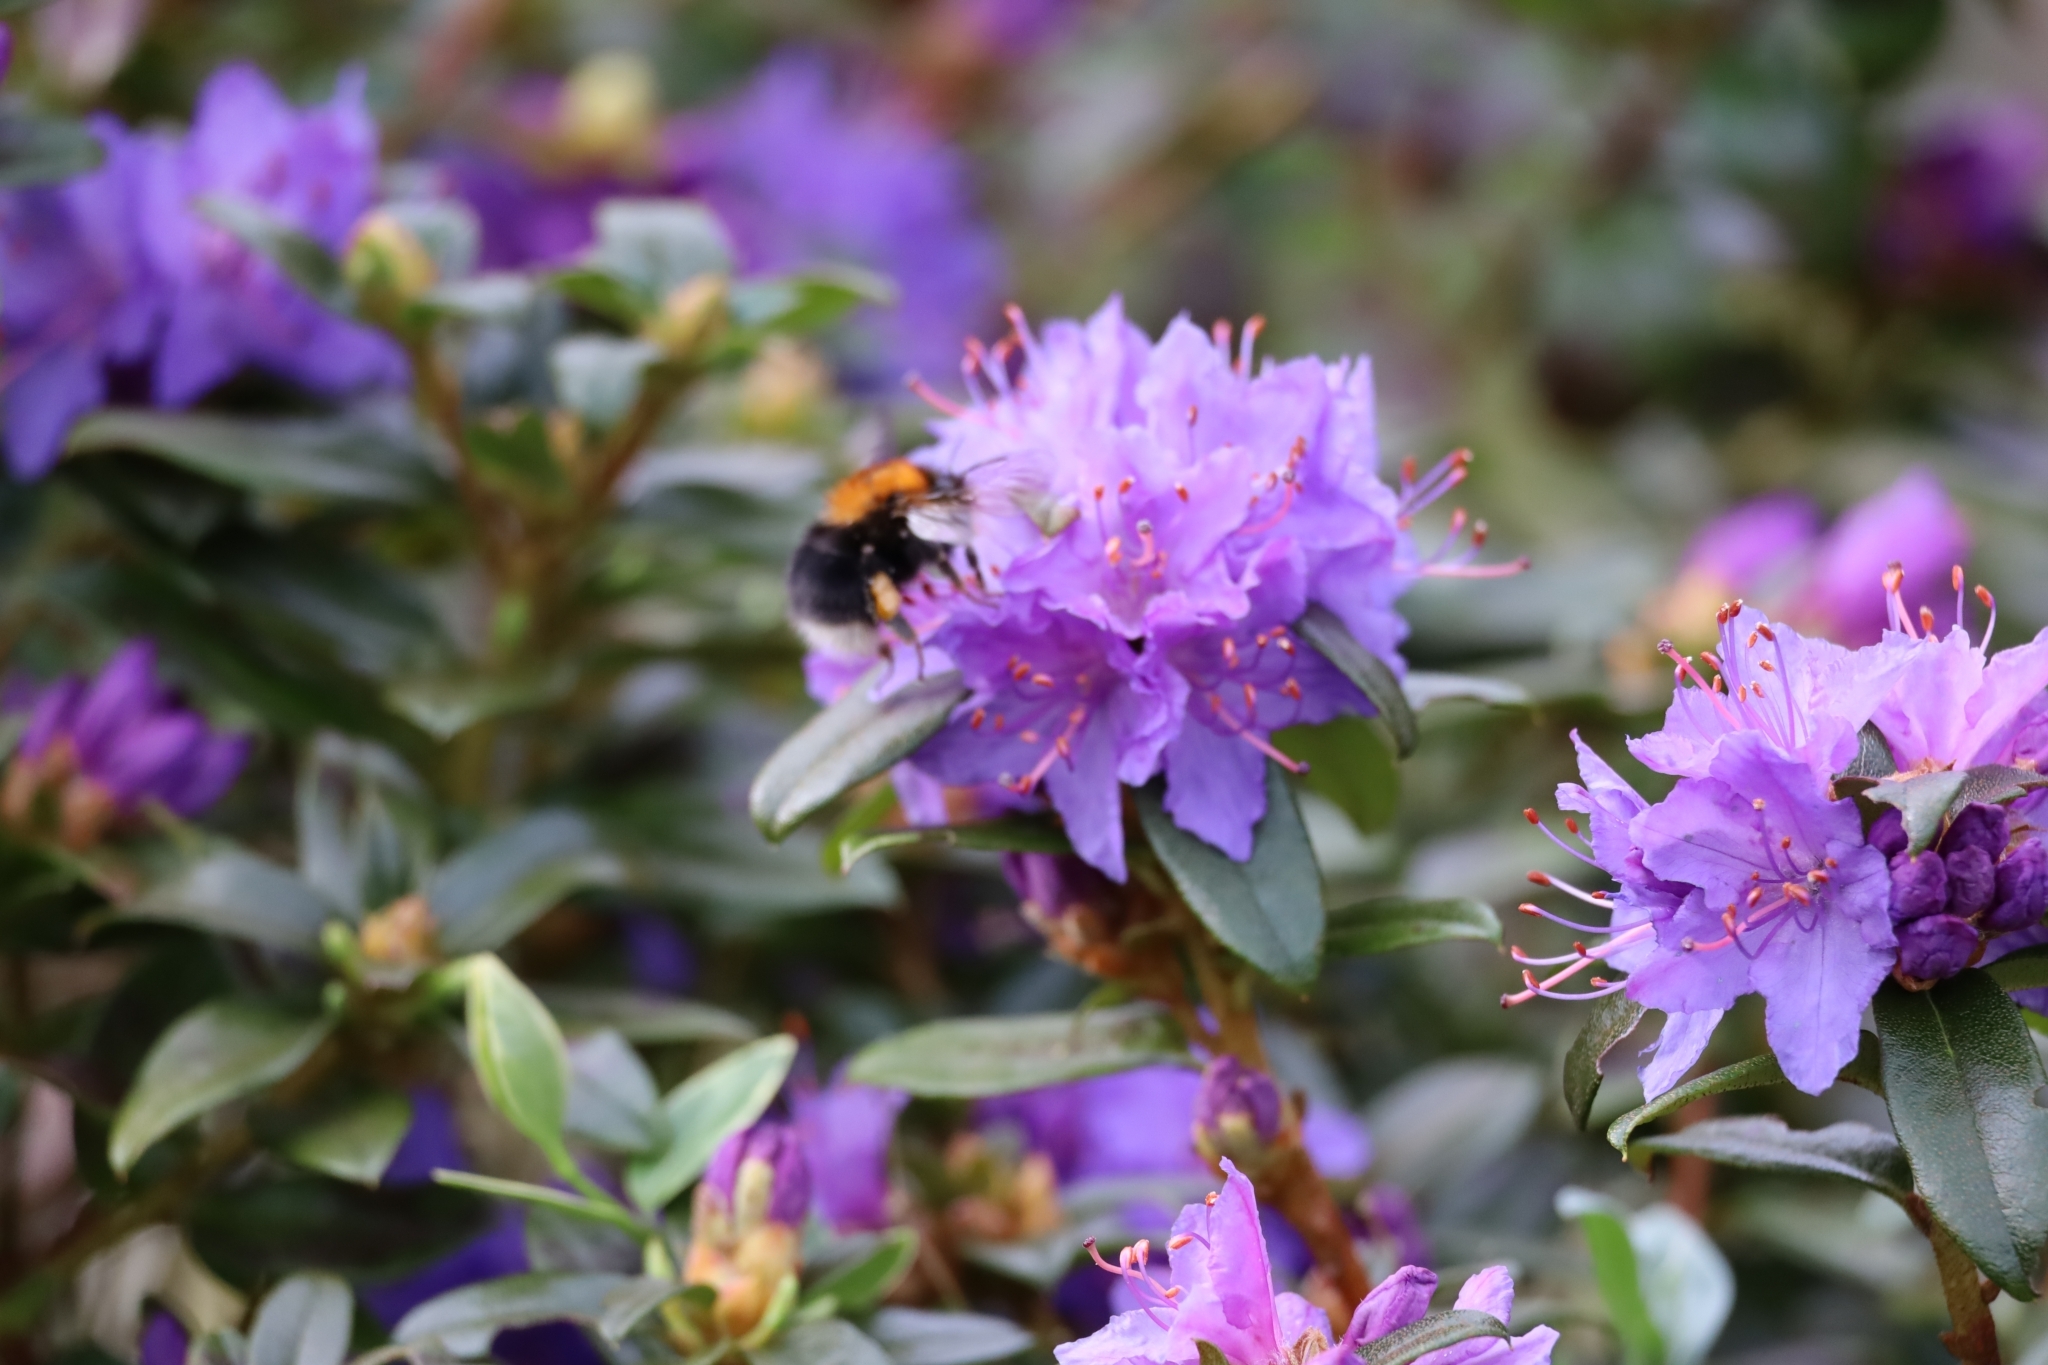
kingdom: Animalia
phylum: Arthropoda
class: Insecta
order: Hymenoptera
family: Apidae
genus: Bombus
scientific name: Bombus hypnorum
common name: New garden bumblebee
